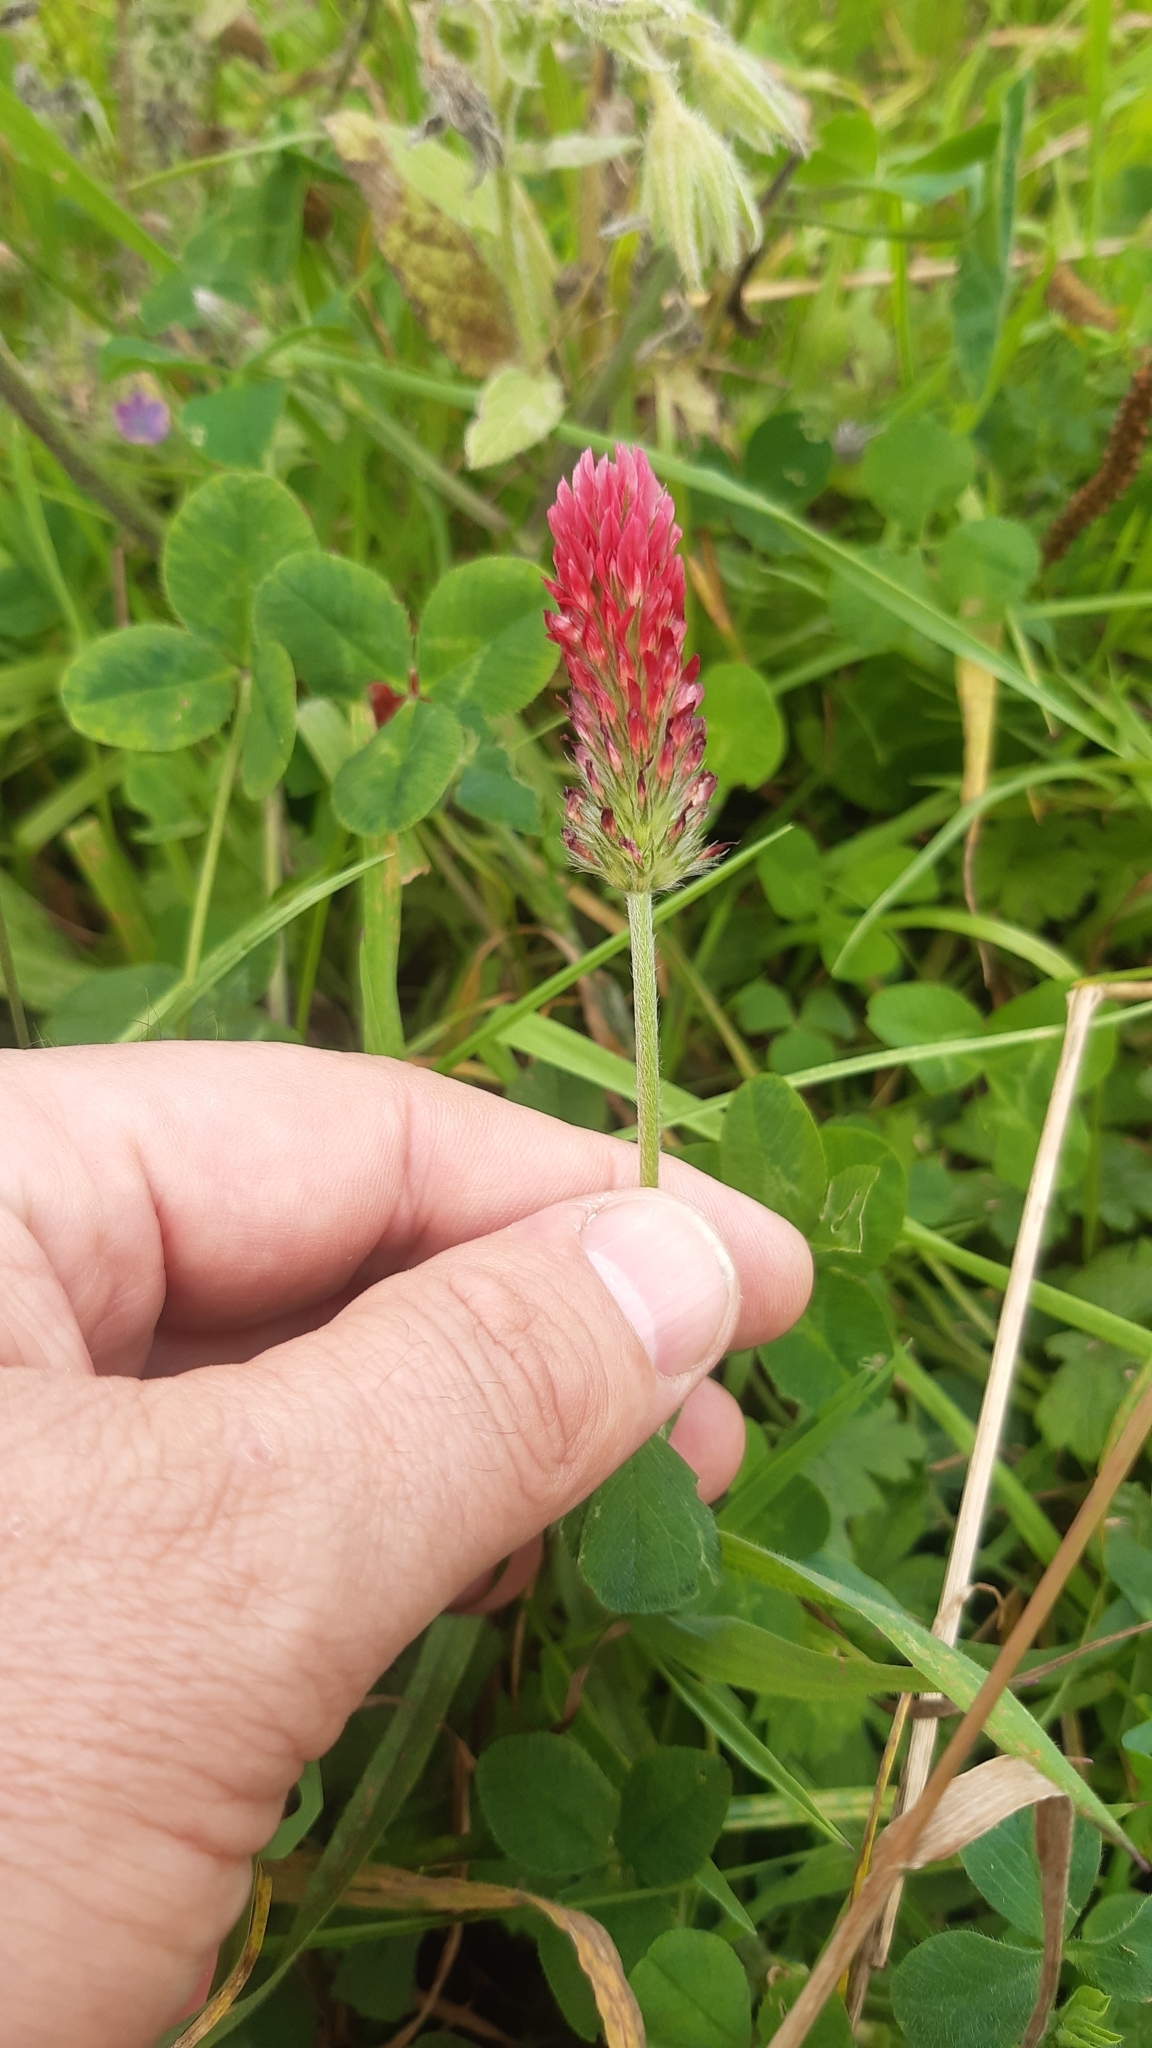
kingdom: Plantae
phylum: Tracheophyta
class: Magnoliopsida
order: Fabales
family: Fabaceae
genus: Trifolium
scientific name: Trifolium incarnatum
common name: Crimson clover
